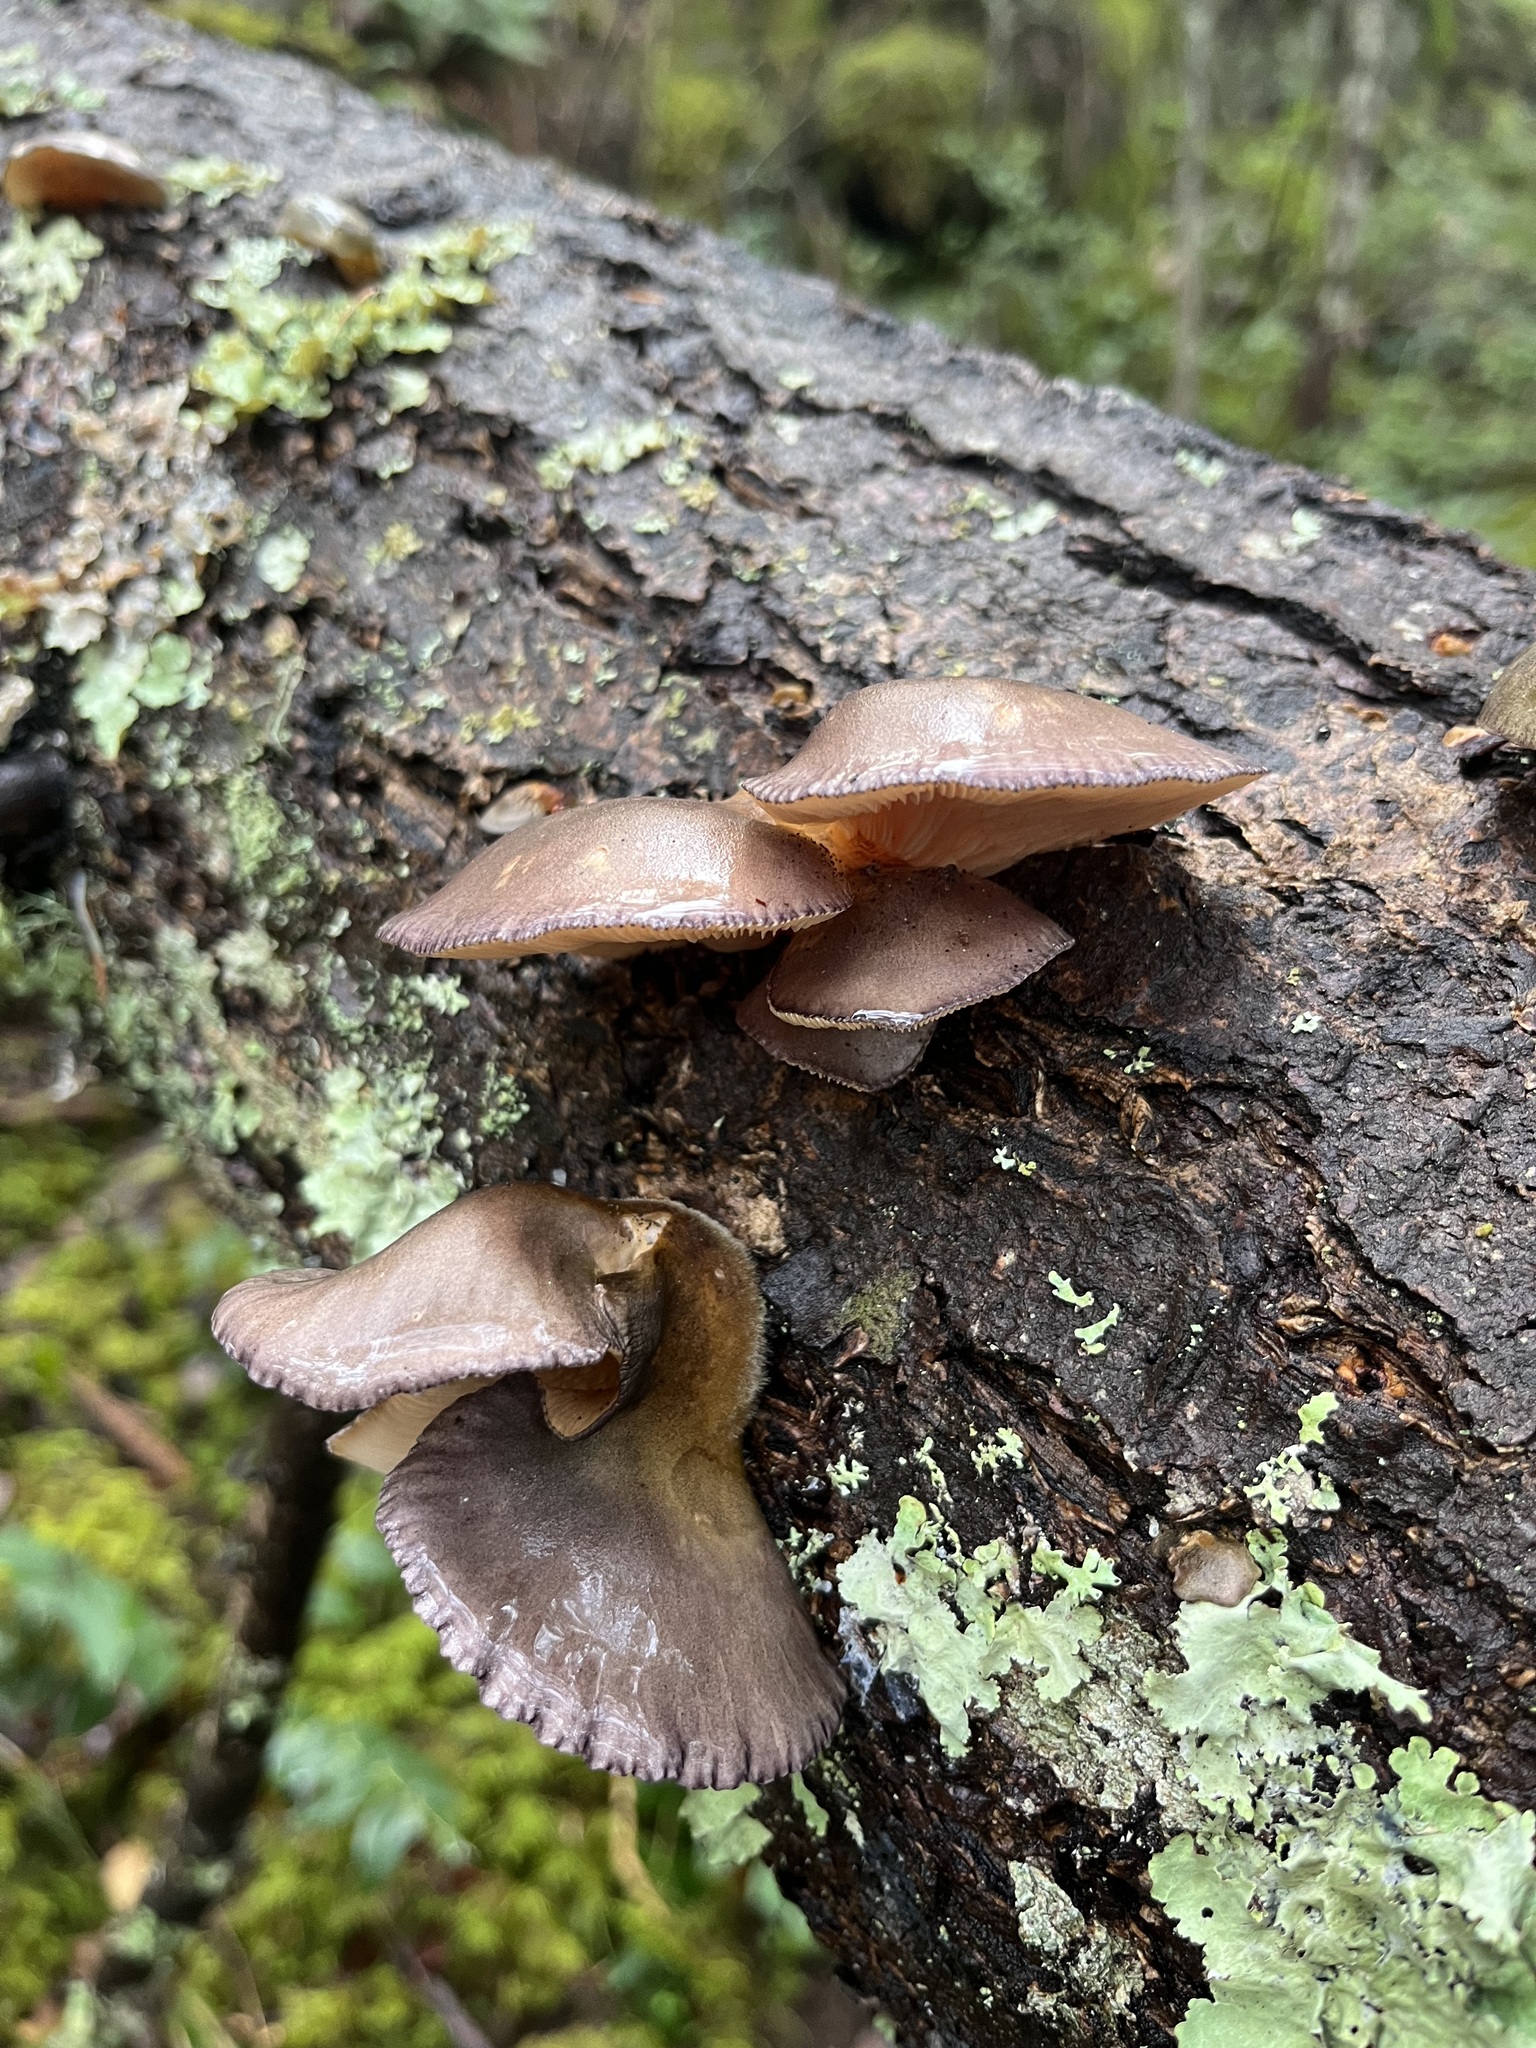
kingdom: Fungi
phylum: Basidiomycota
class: Agaricomycetes
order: Agaricales
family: Sarcomyxaceae
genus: Sarcomyxa
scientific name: Sarcomyxa serotina
